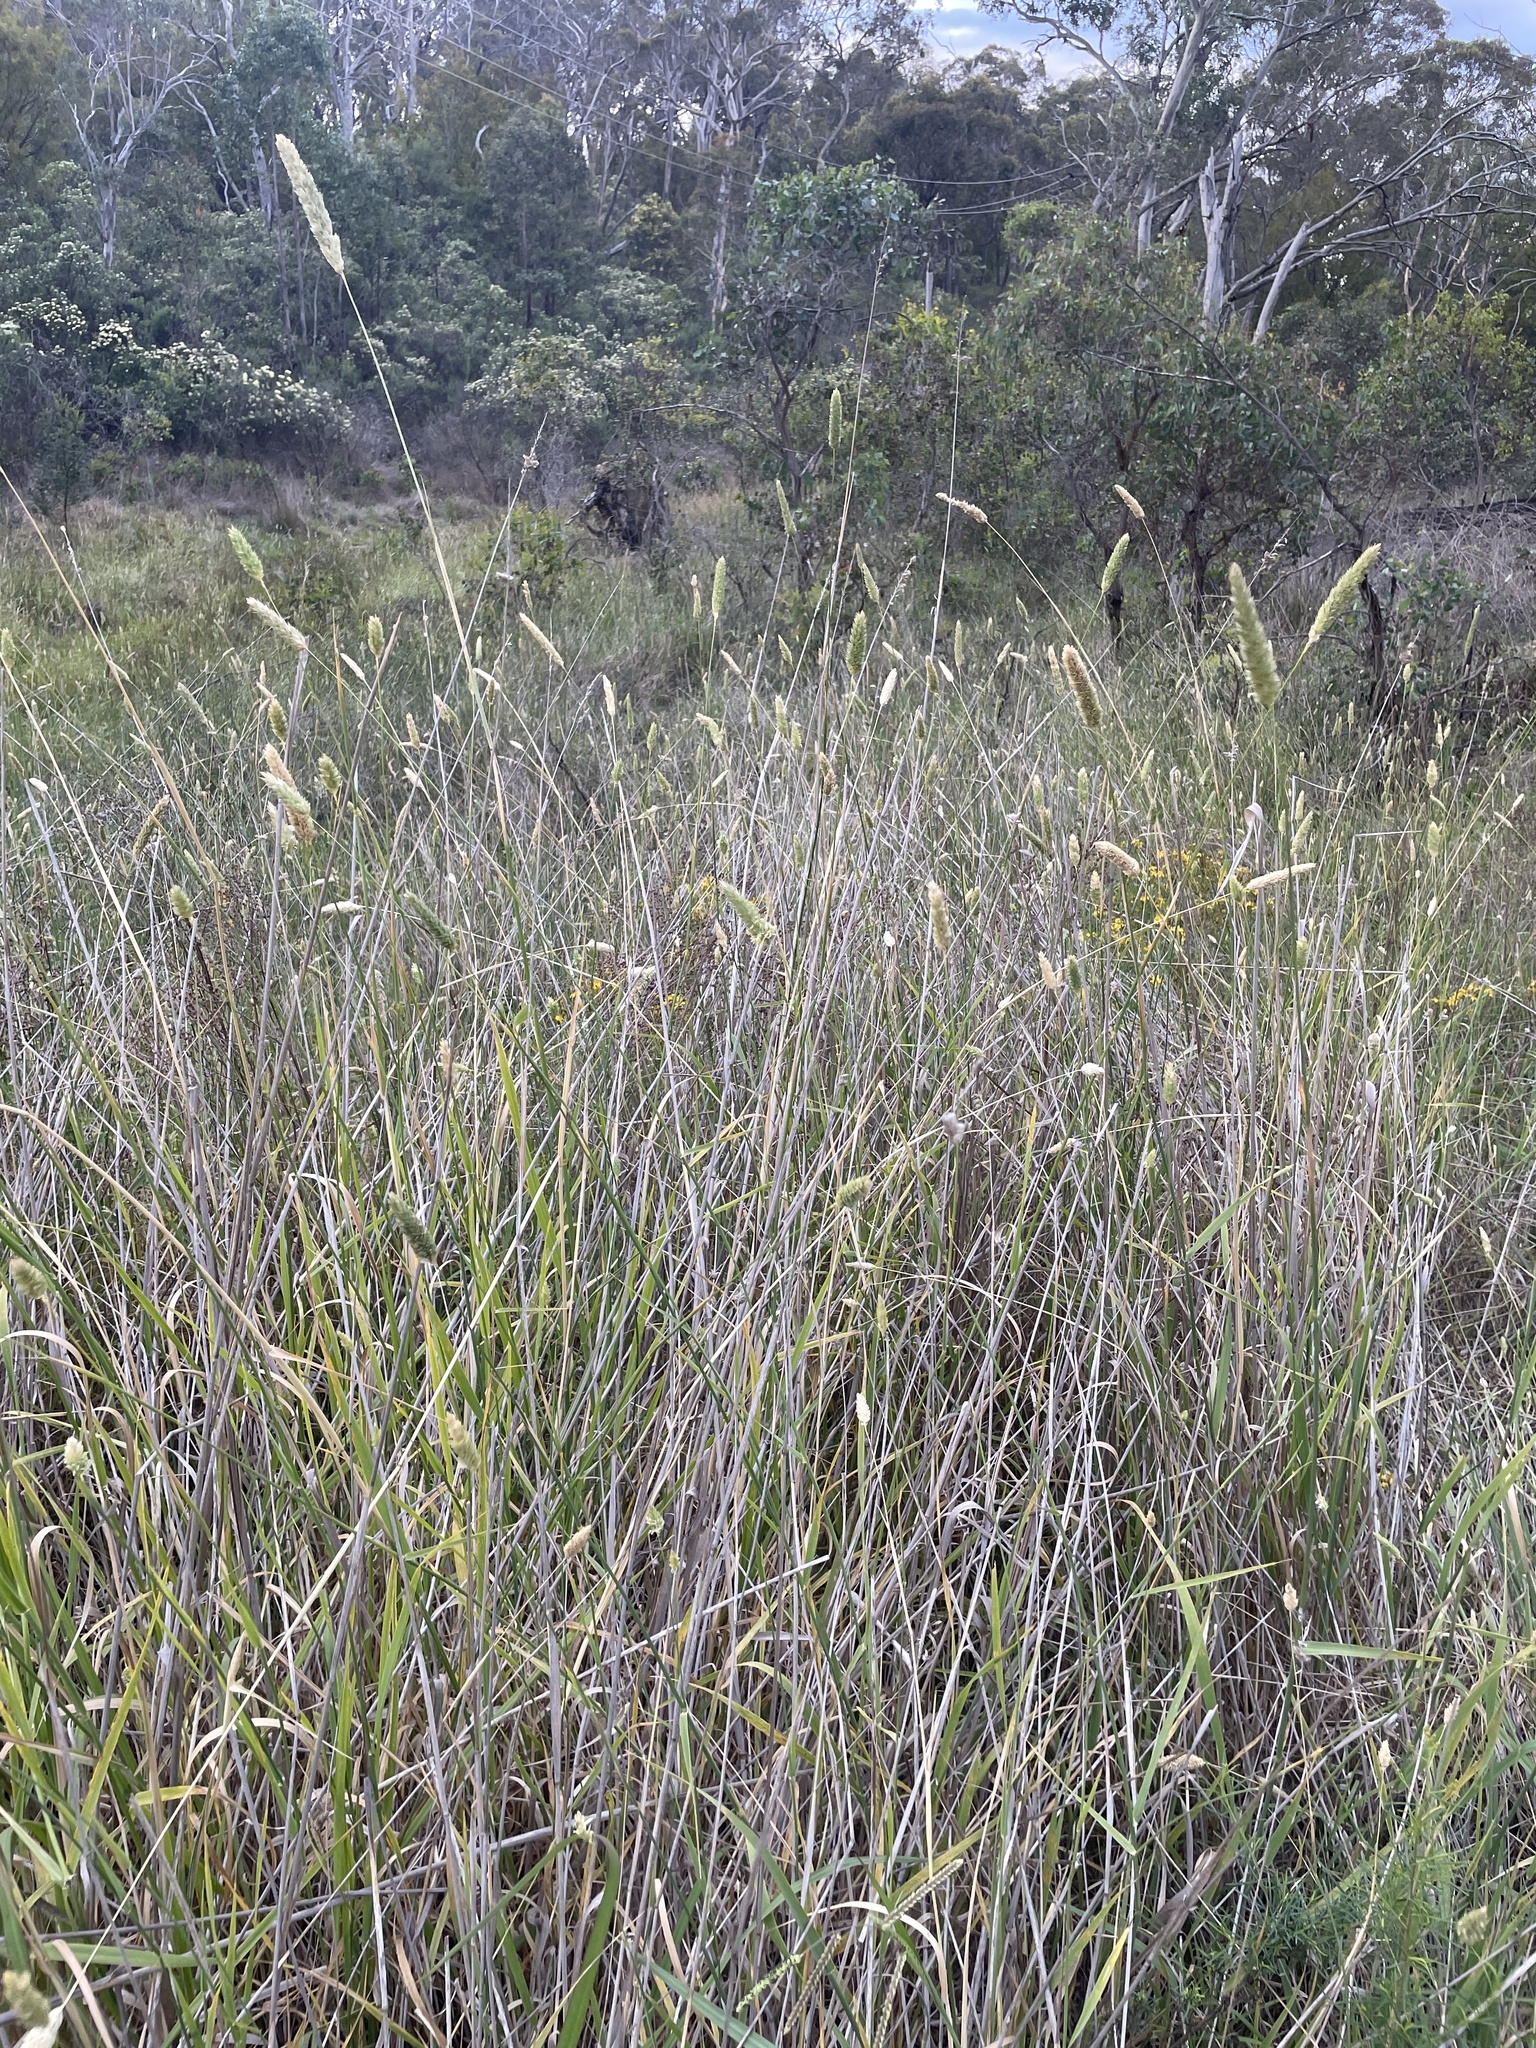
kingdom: Plantae
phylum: Tracheophyta
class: Liliopsida
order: Poales
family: Poaceae
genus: Phalaris
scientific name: Phalaris aquatica
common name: Bulbous canary-grass
